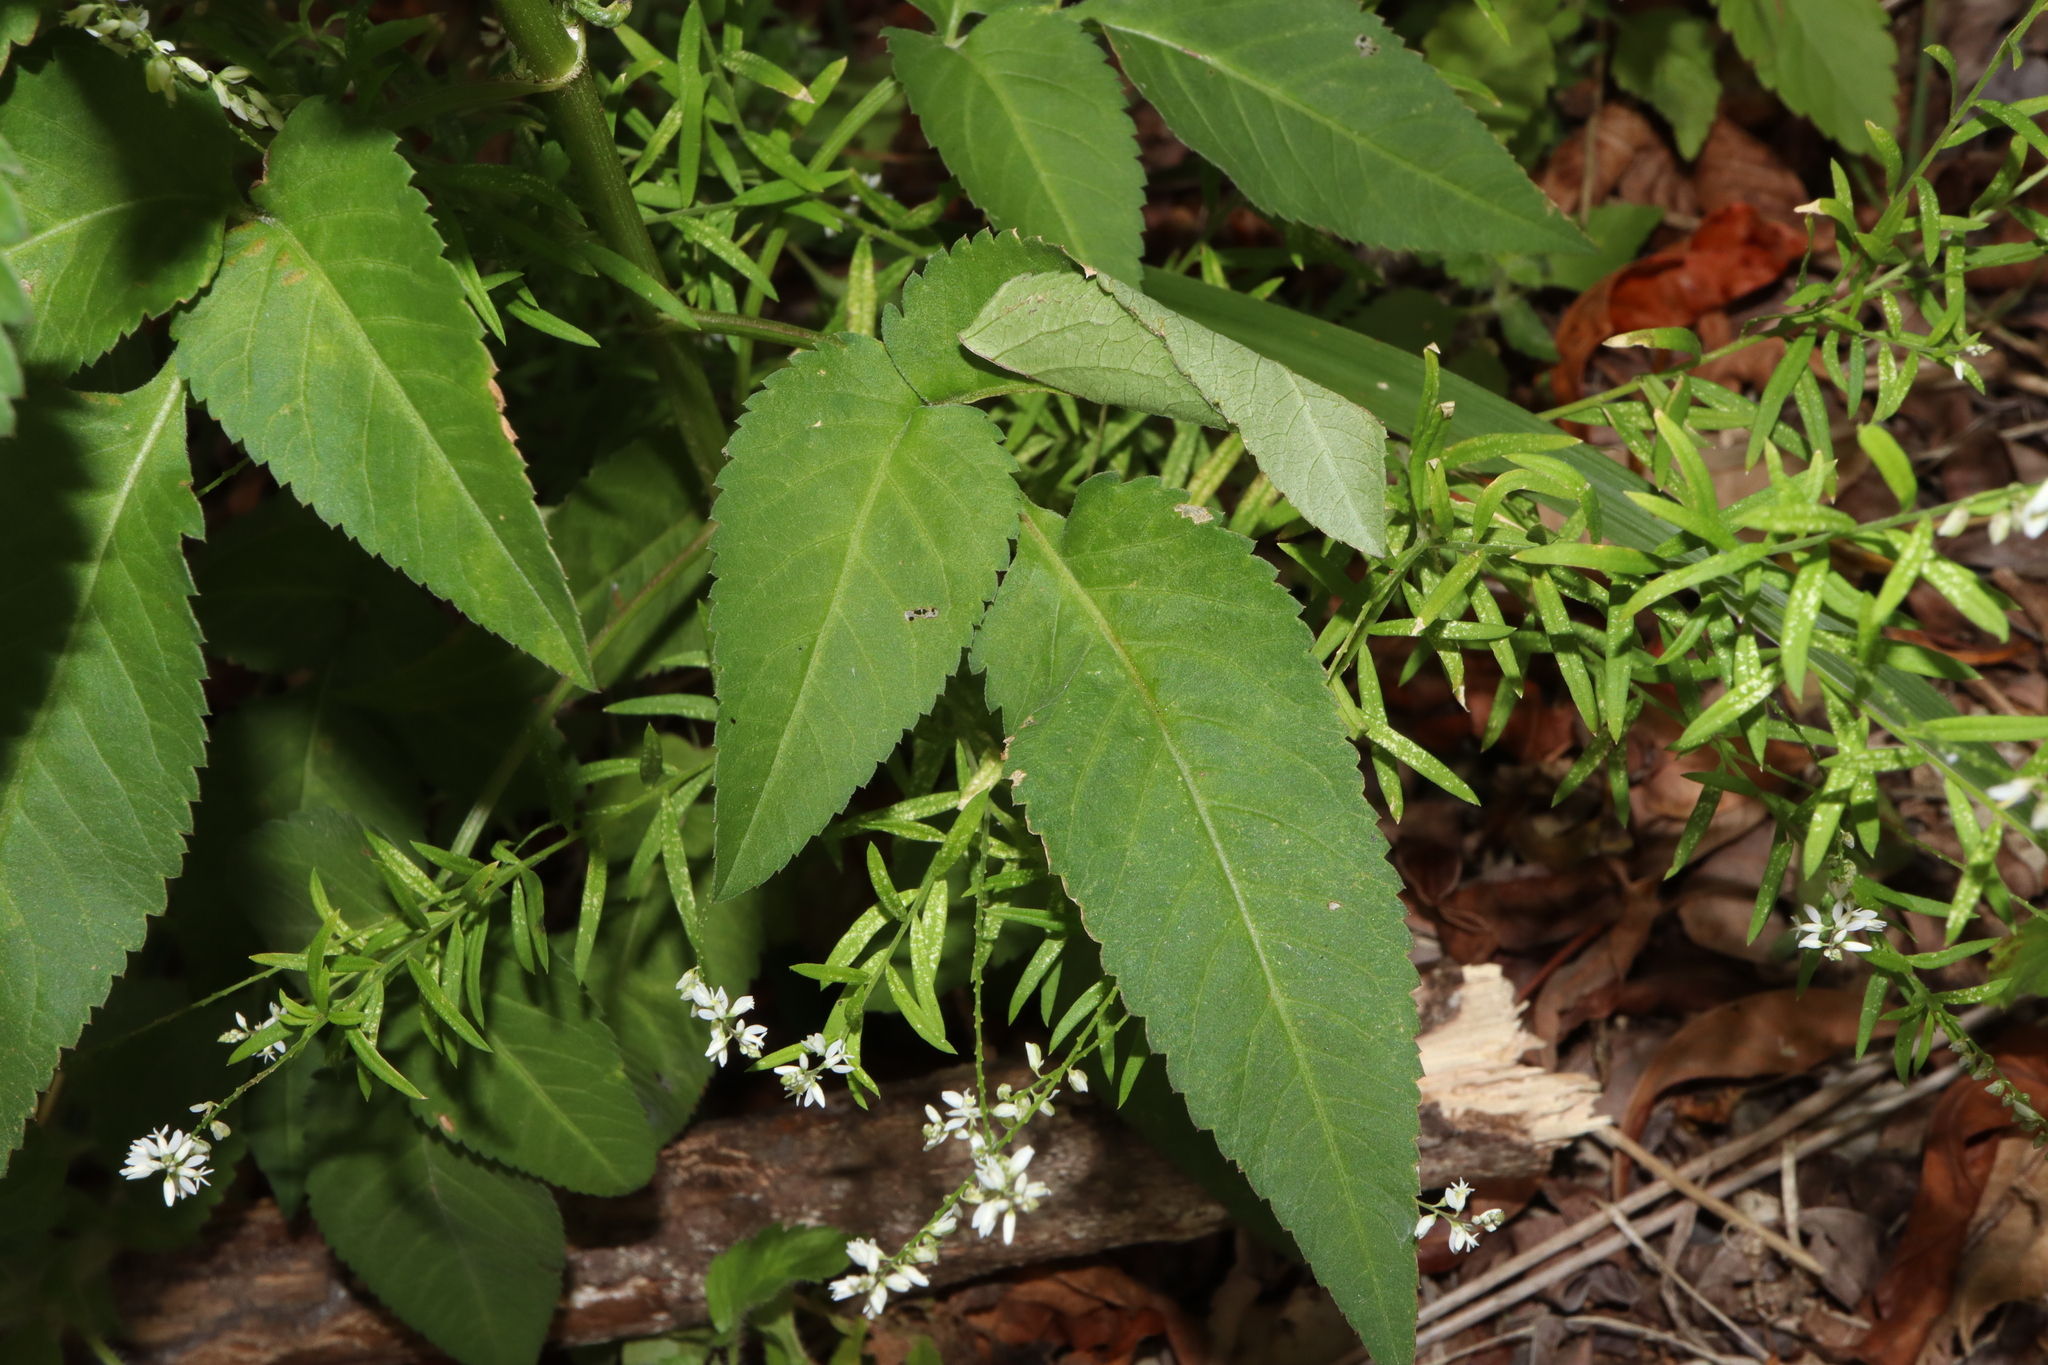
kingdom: Plantae
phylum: Tracheophyta
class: Magnoliopsida
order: Asterales
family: Asteraceae
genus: Bidens
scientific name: Bidens pilosa
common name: Black-jack
